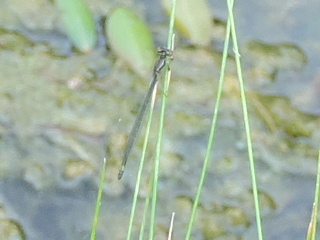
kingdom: Animalia
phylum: Arthropoda
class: Insecta
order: Odonata
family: Coenagrionidae
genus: Enallagma
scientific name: Enallagma geminatum
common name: Skimming bluet
